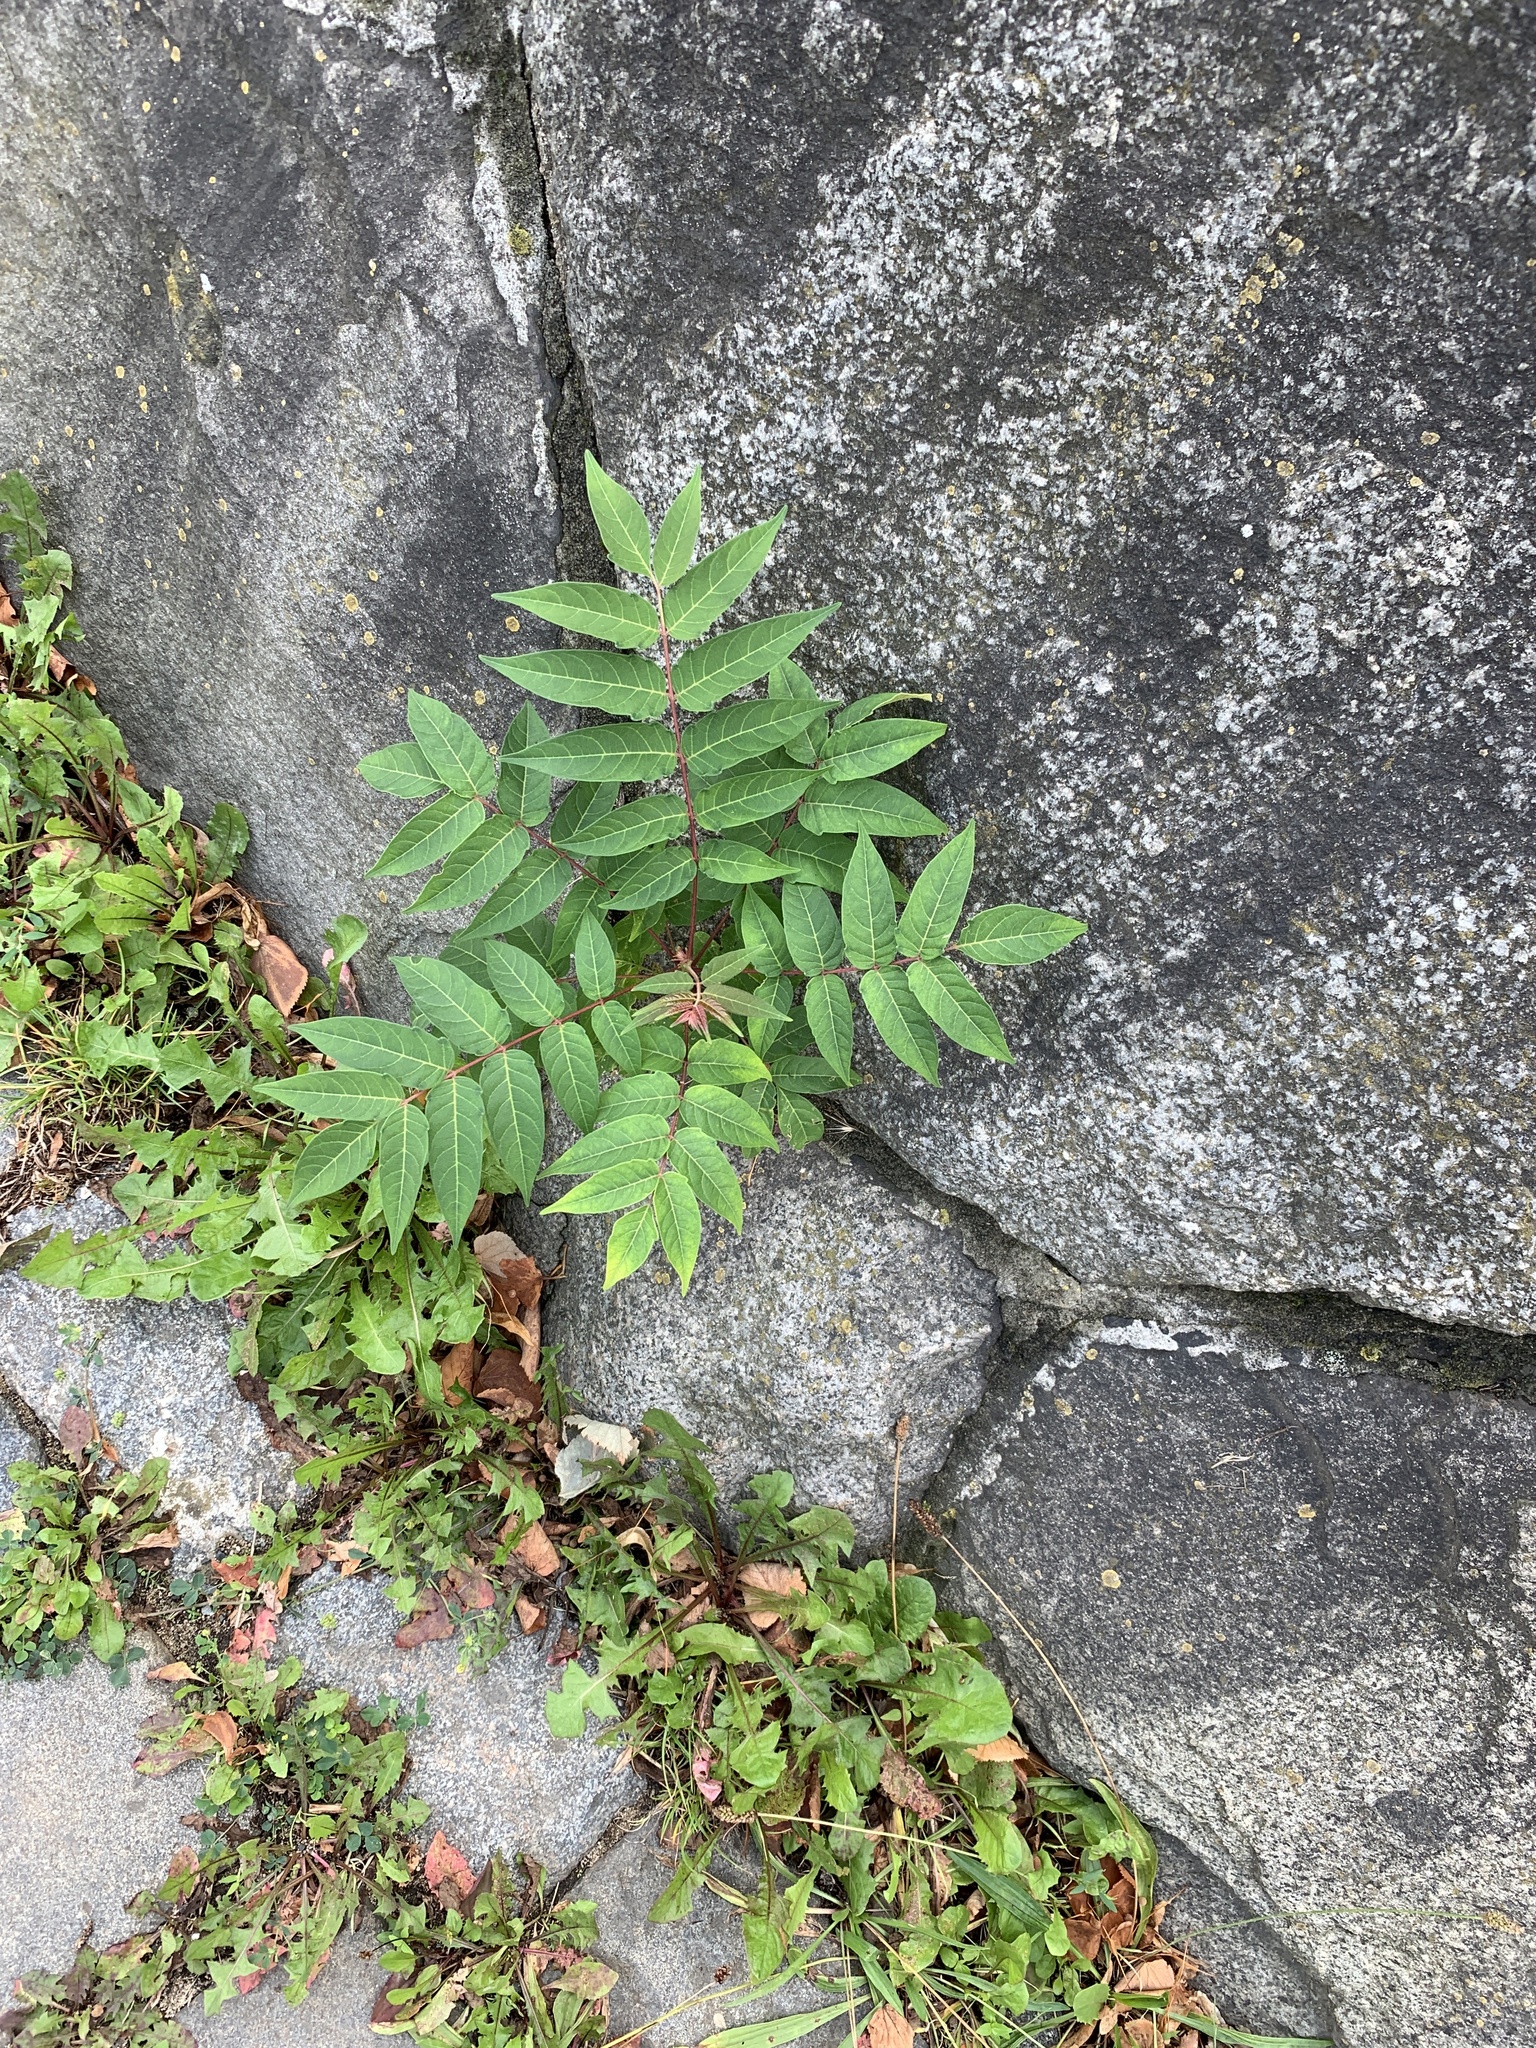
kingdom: Plantae
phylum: Tracheophyta
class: Magnoliopsida
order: Sapindales
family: Simaroubaceae
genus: Ailanthus
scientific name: Ailanthus altissima
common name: Tree-of-heaven
